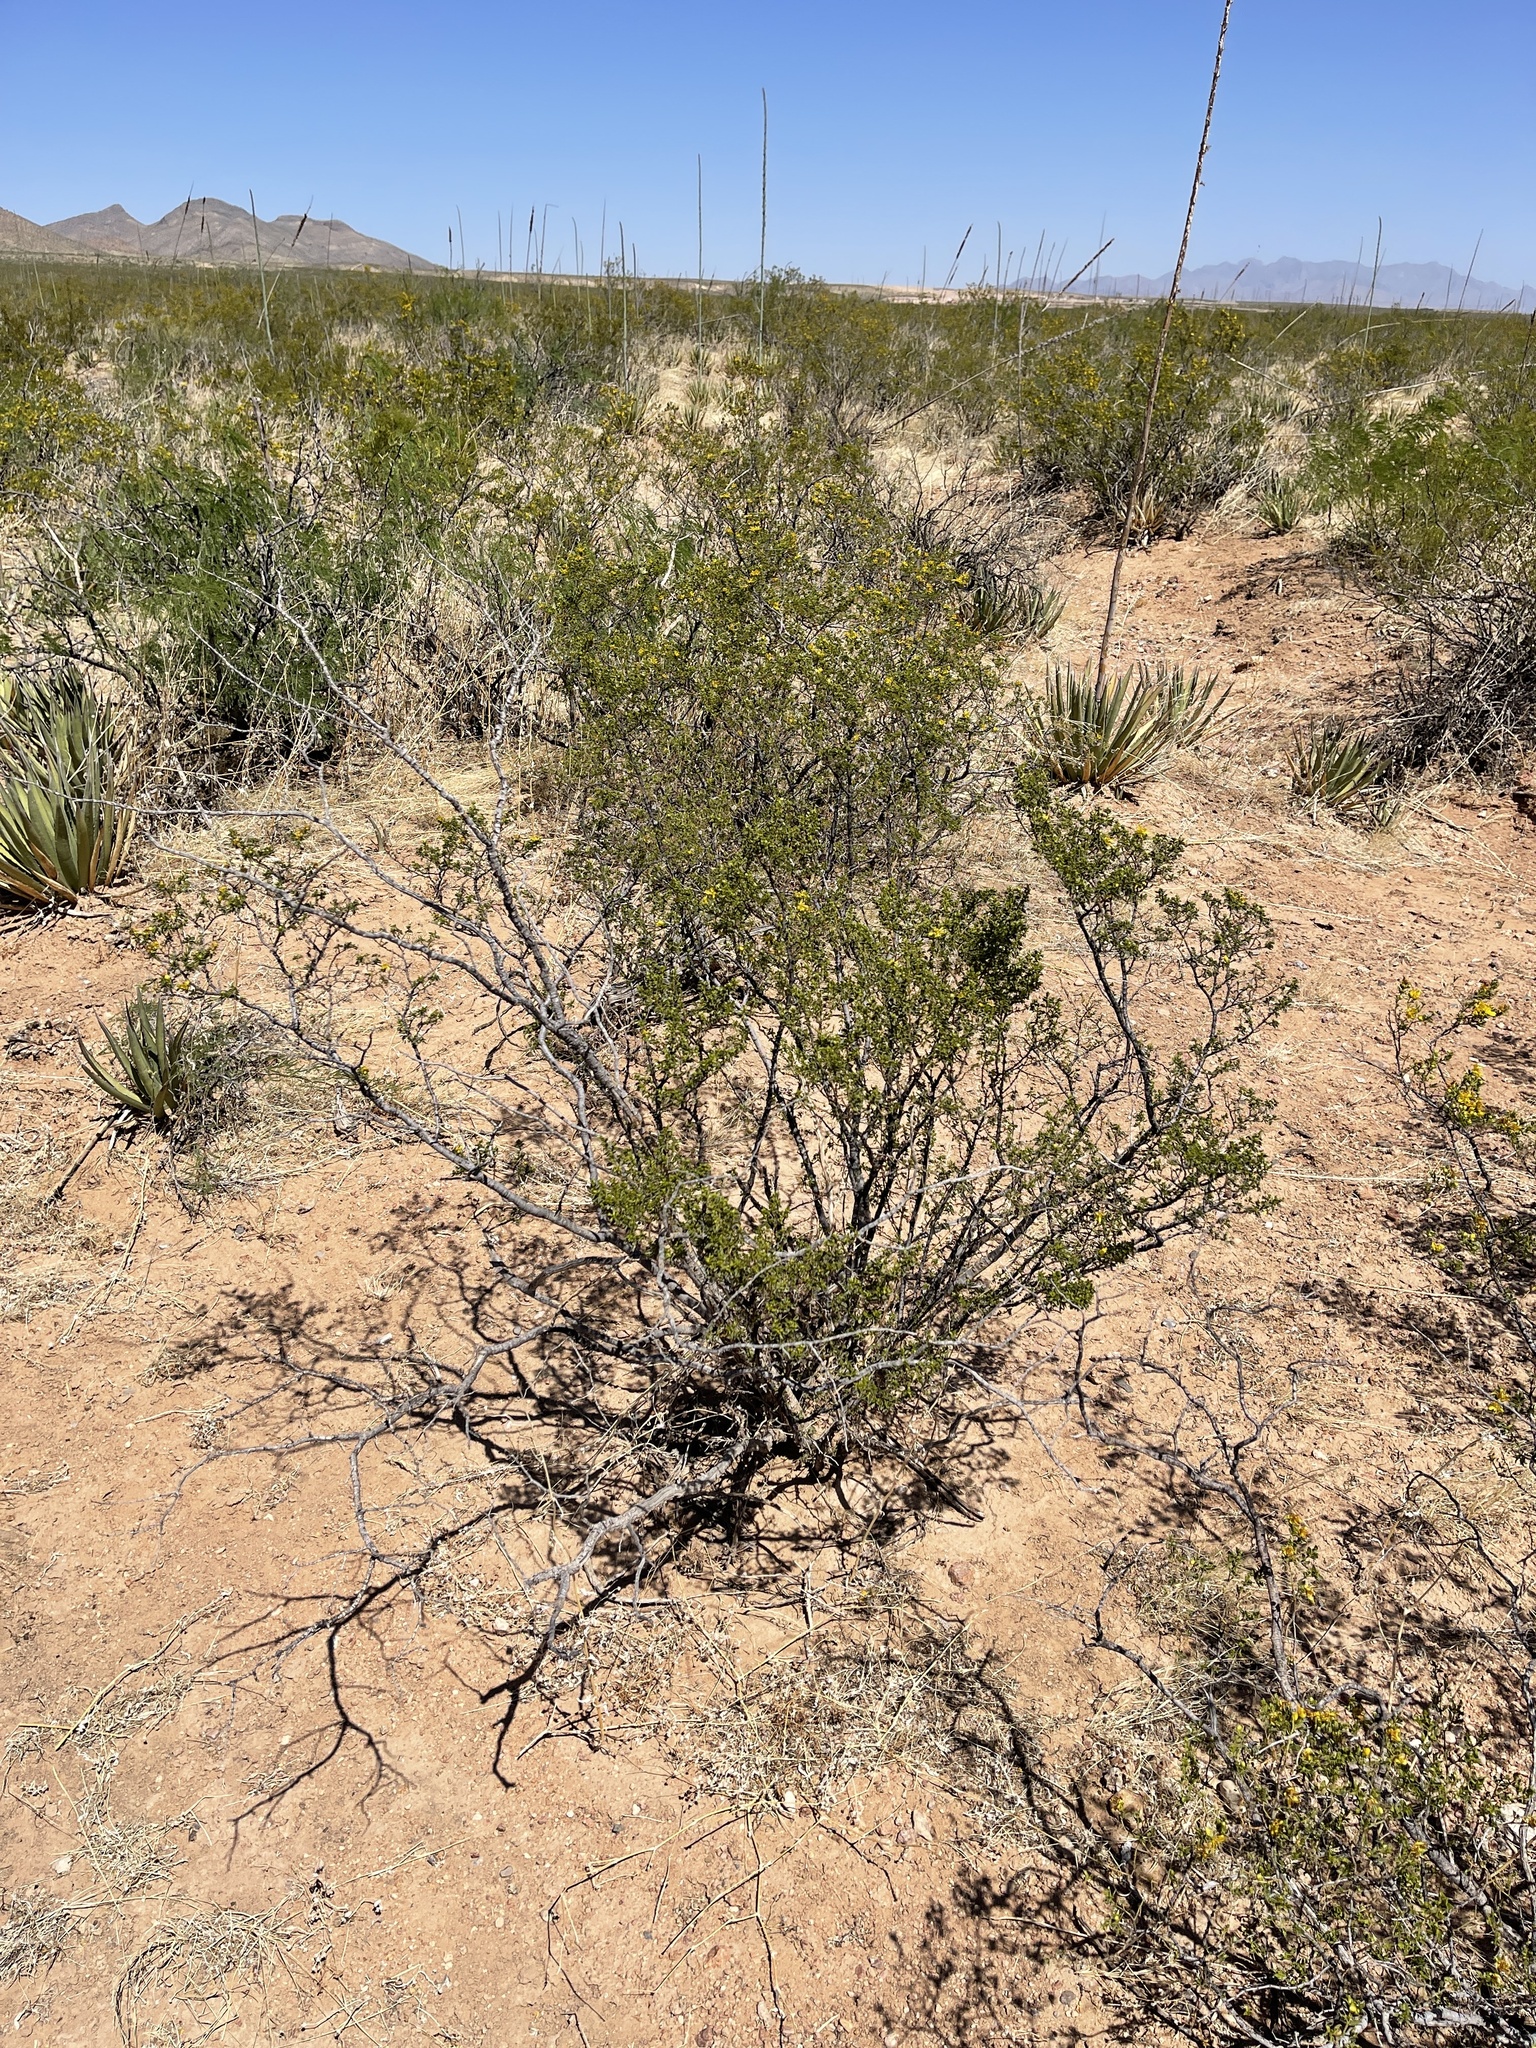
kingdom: Plantae
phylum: Tracheophyta
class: Magnoliopsida
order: Zygophyllales
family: Zygophyllaceae
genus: Larrea
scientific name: Larrea tridentata
